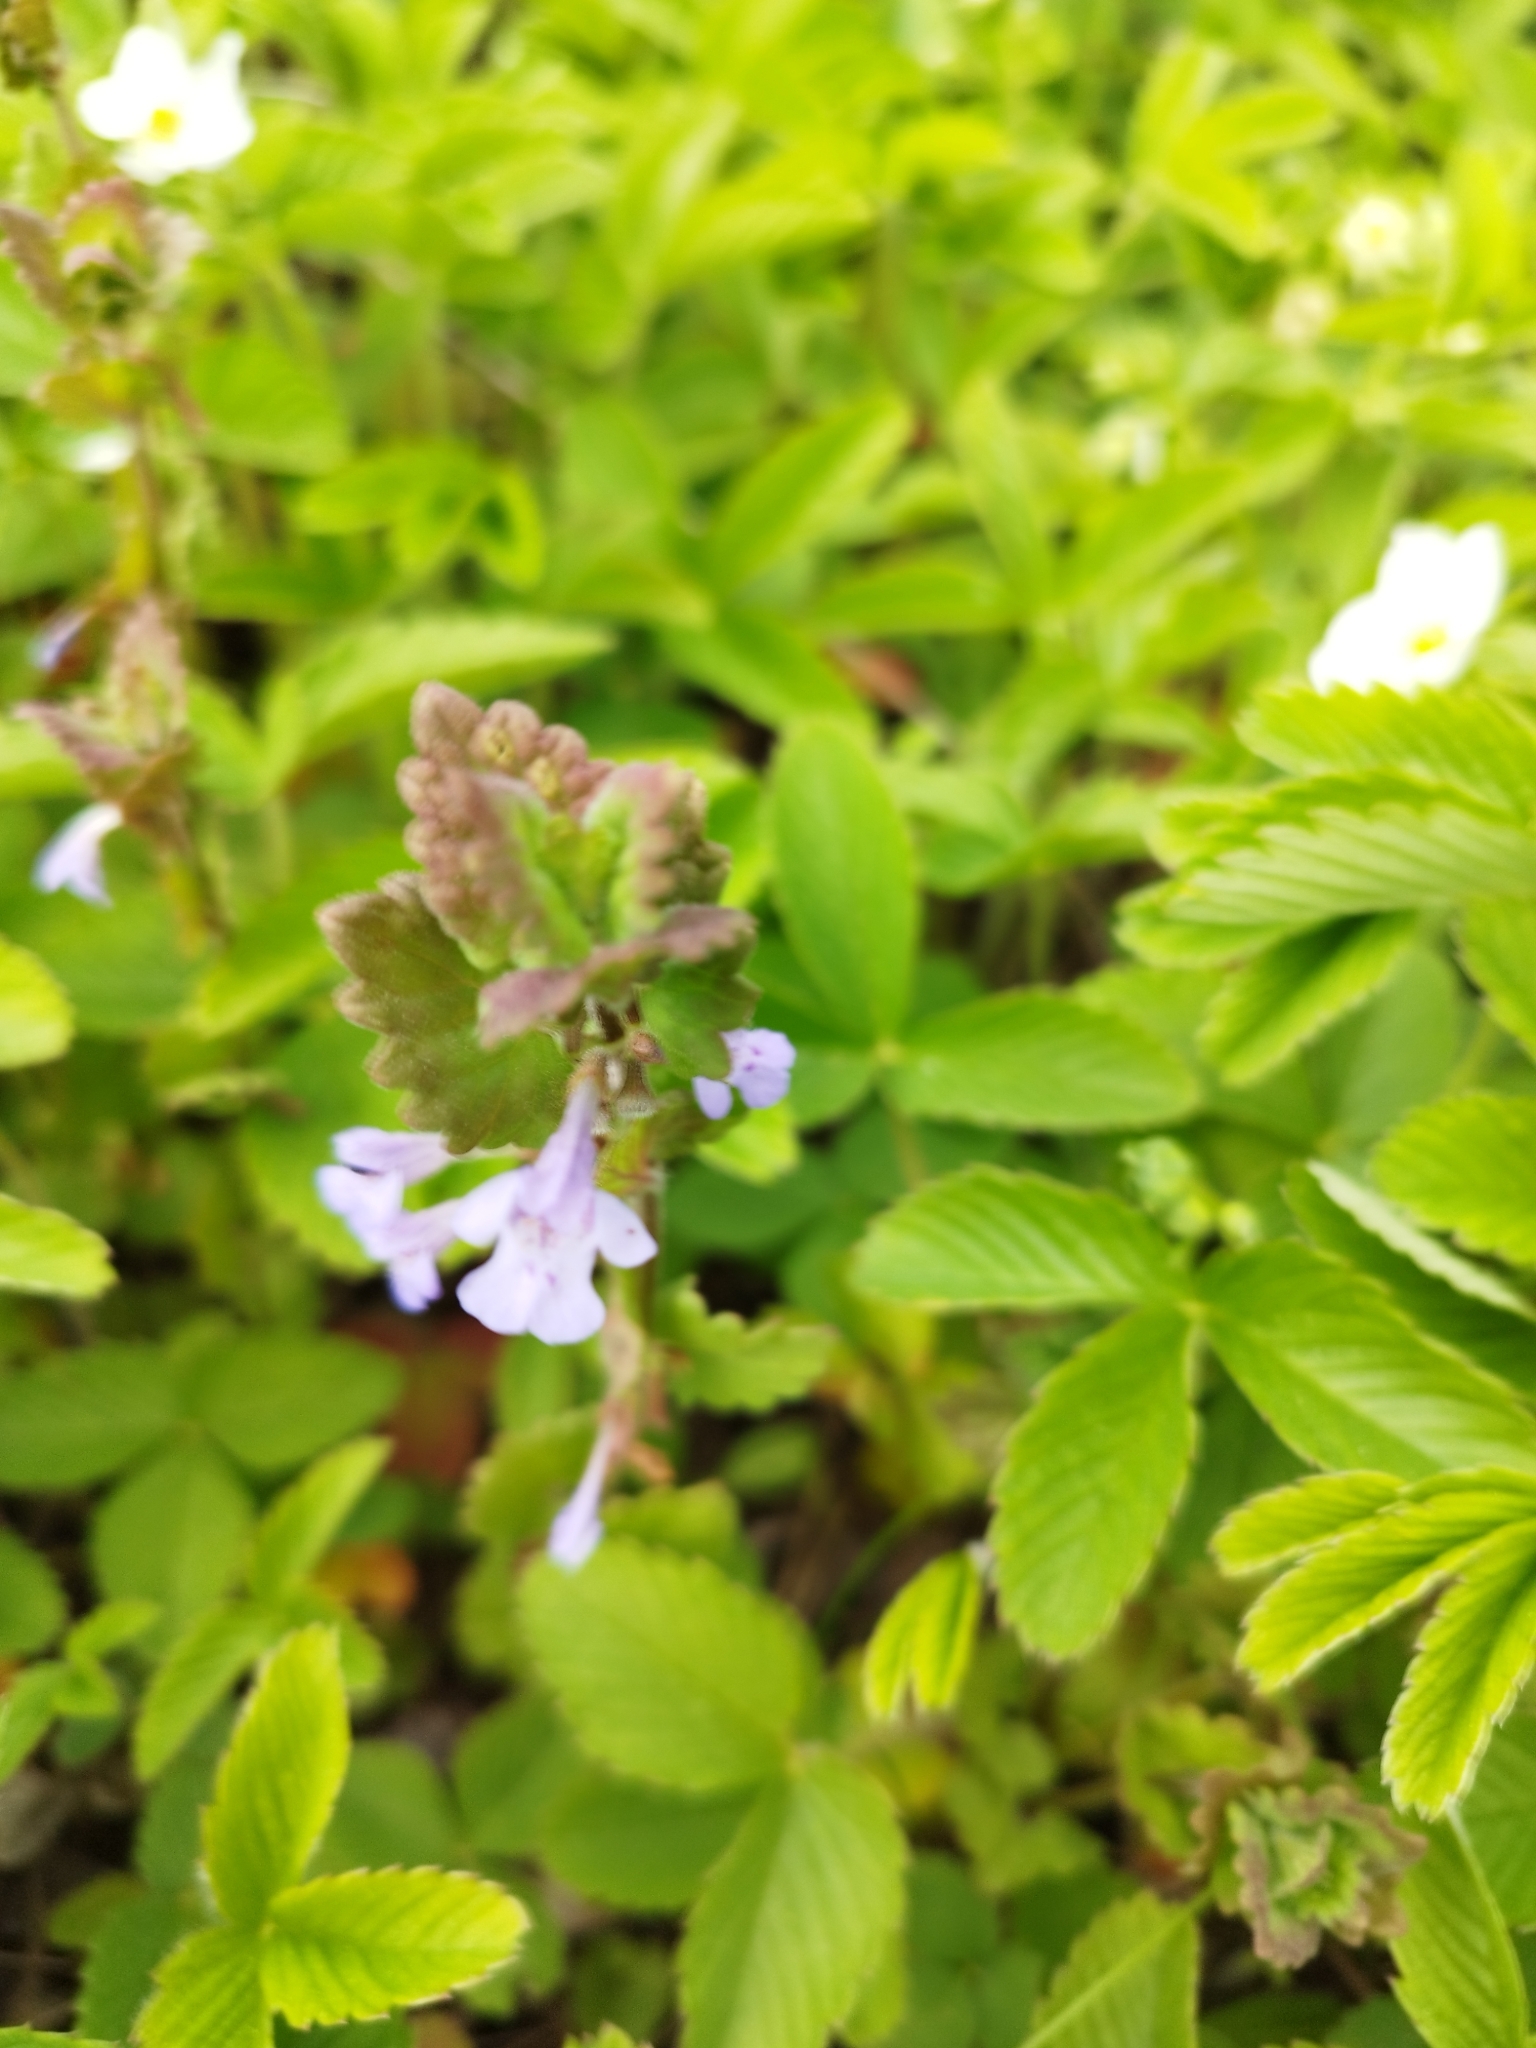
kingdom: Plantae
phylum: Tracheophyta
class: Magnoliopsida
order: Lamiales
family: Lamiaceae
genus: Glechoma
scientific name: Glechoma hederacea
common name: Ground ivy
